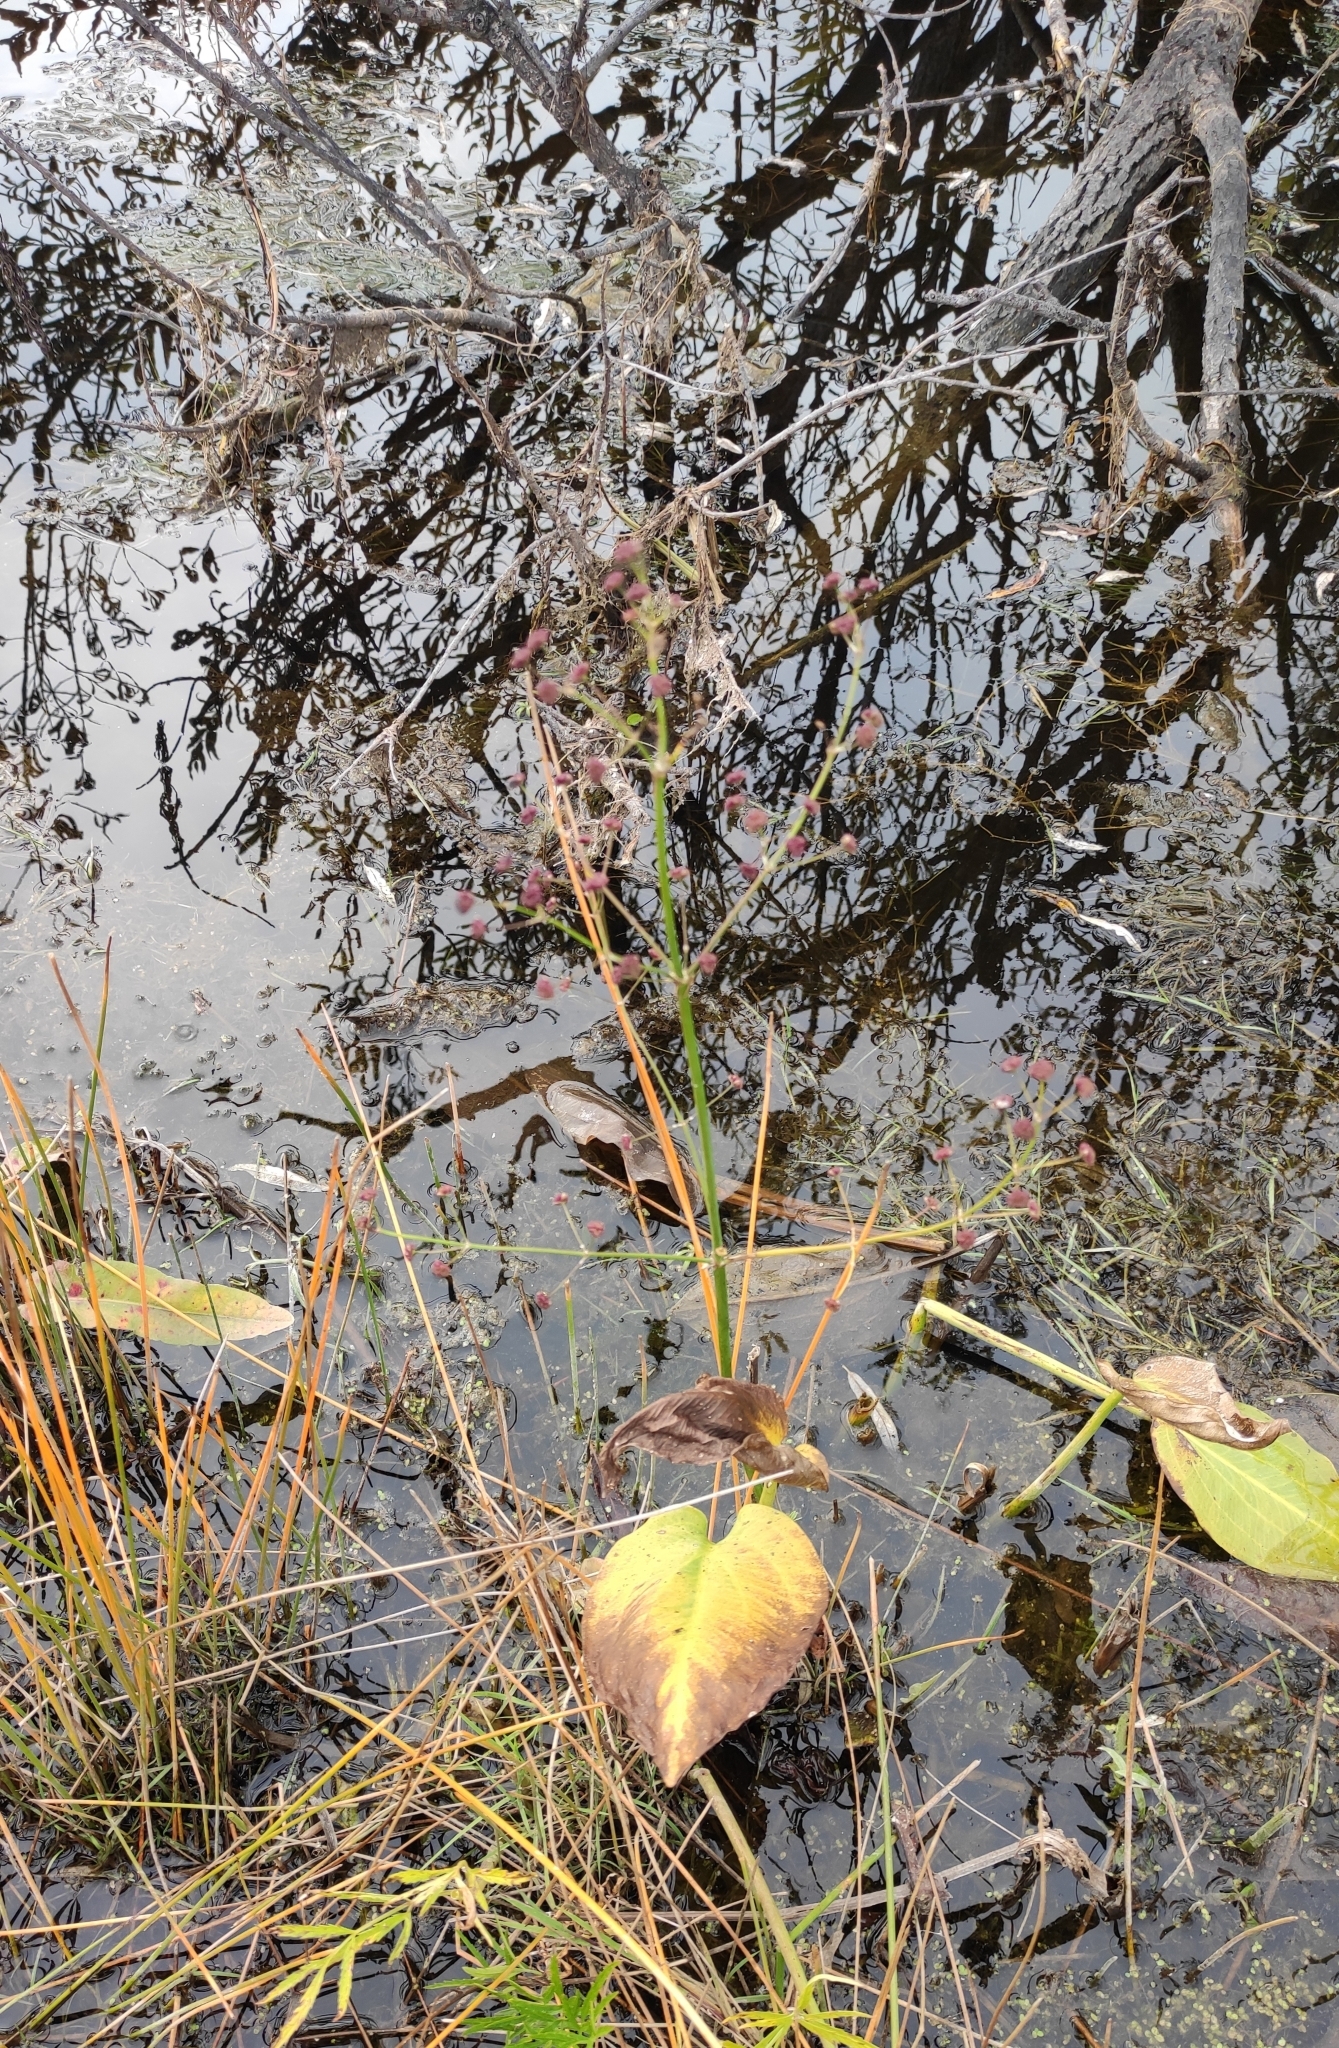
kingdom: Plantae
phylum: Tracheophyta
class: Liliopsida
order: Alismatales
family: Alismataceae
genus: Alisma
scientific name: Alisma plantago-aquatica
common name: Water-plantain
